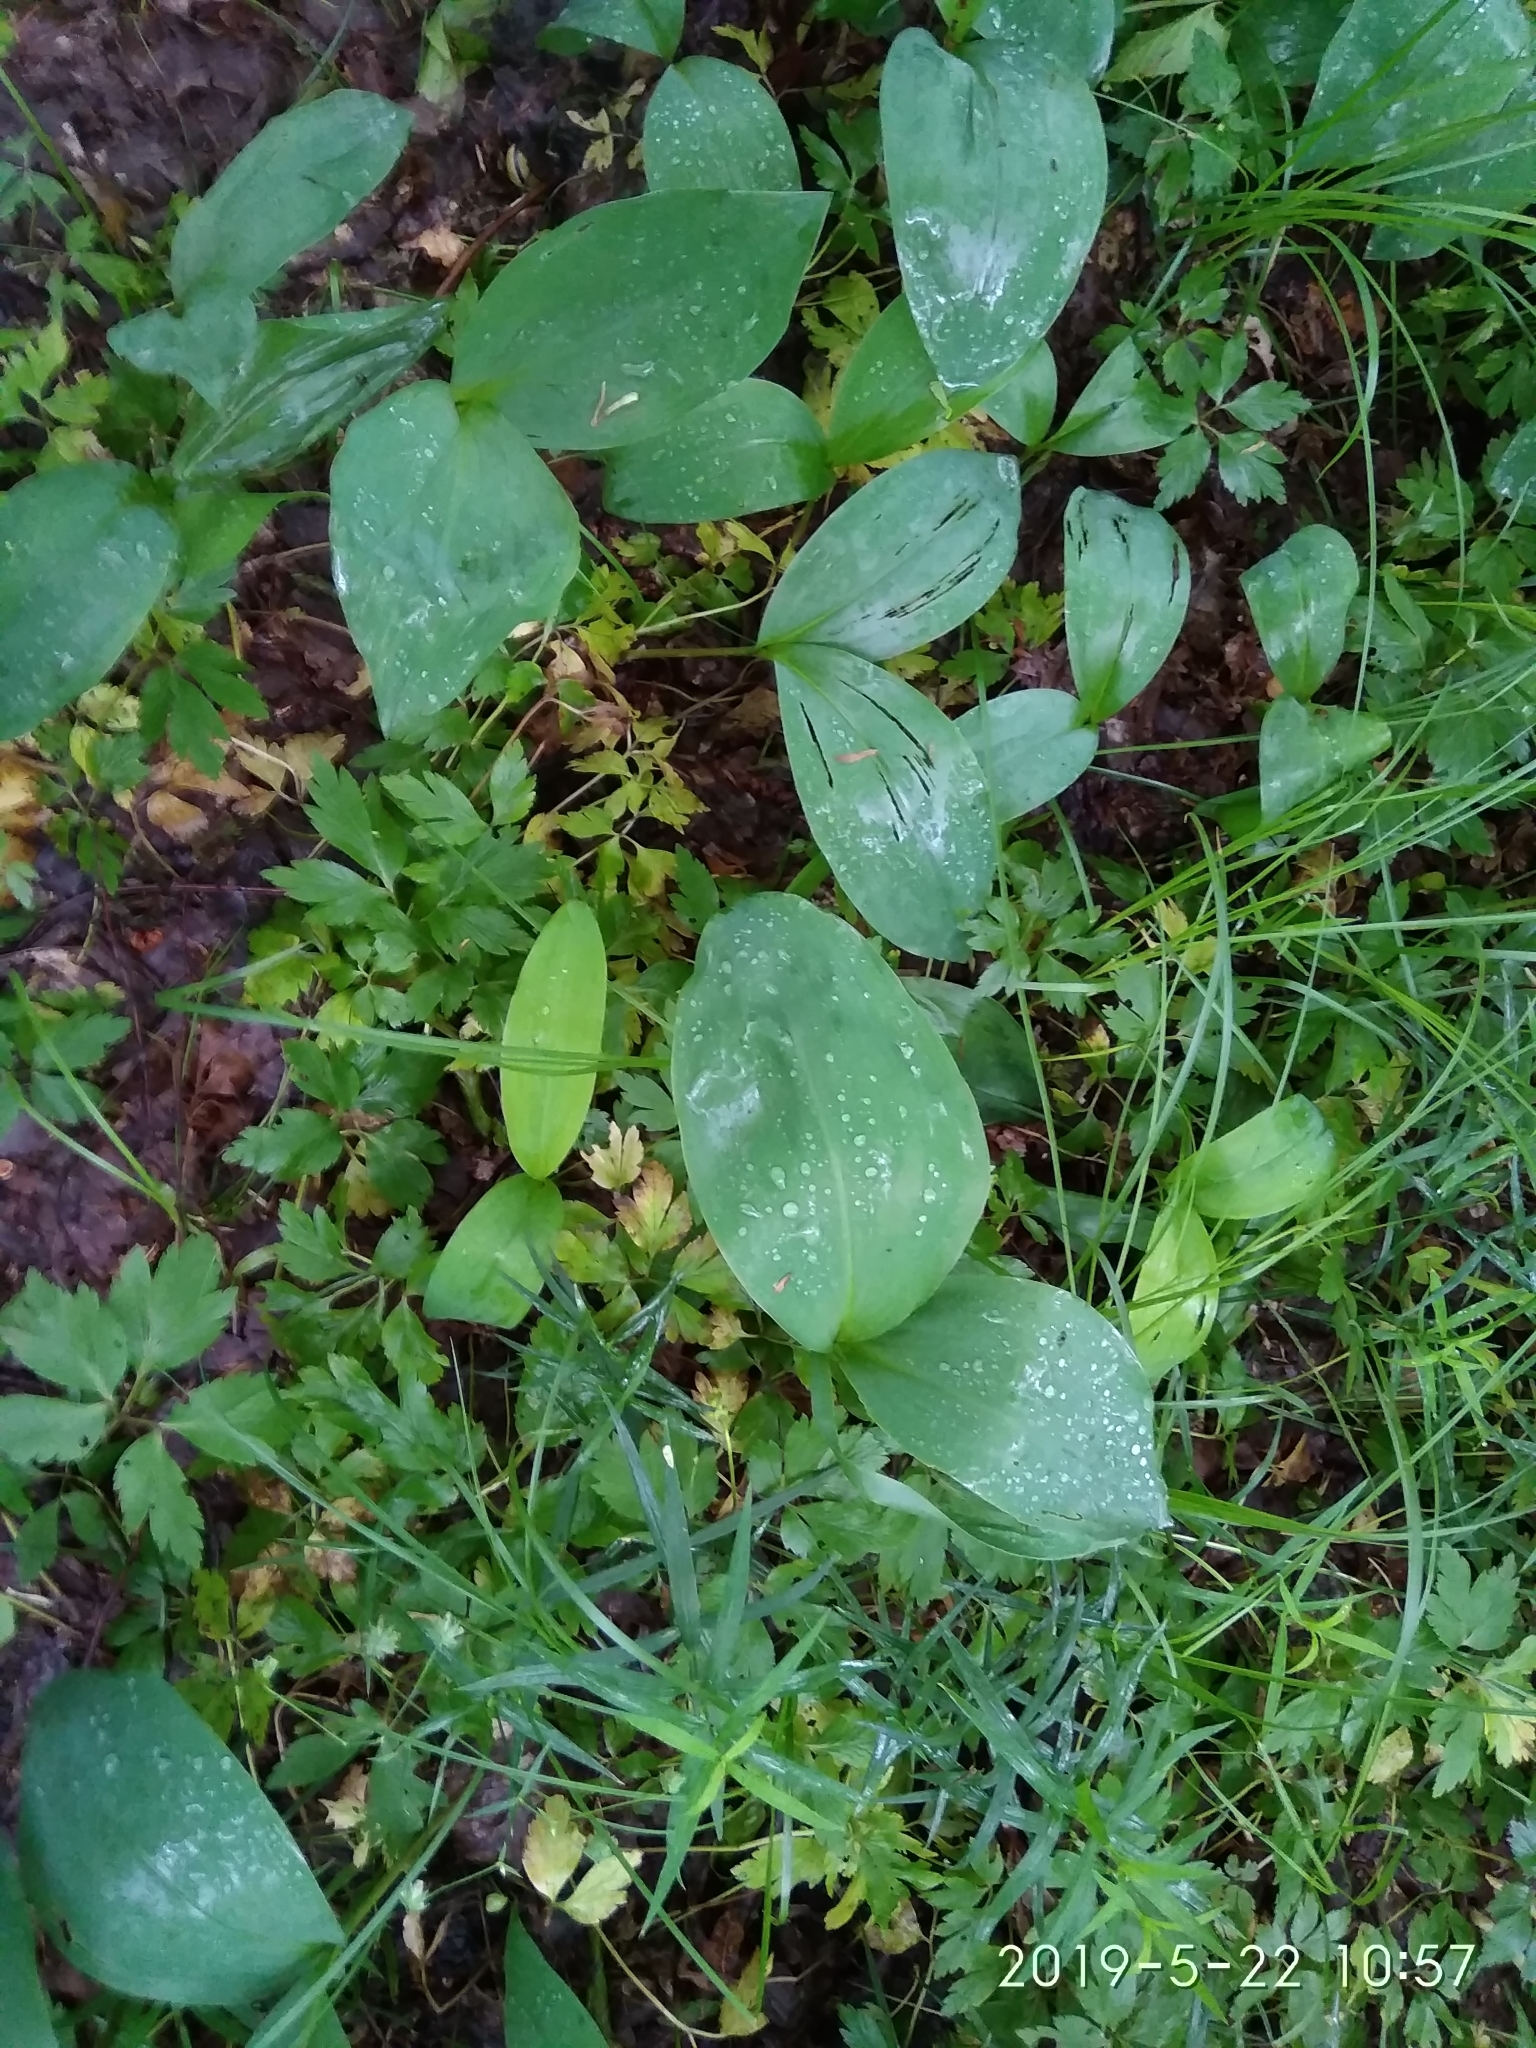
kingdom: Plantae
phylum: Tracheophyta
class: Liliopsida
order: Asparagales
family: Asparagaceae
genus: Convallaria
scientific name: Convallaria majalis
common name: Lily-of-the-valley
